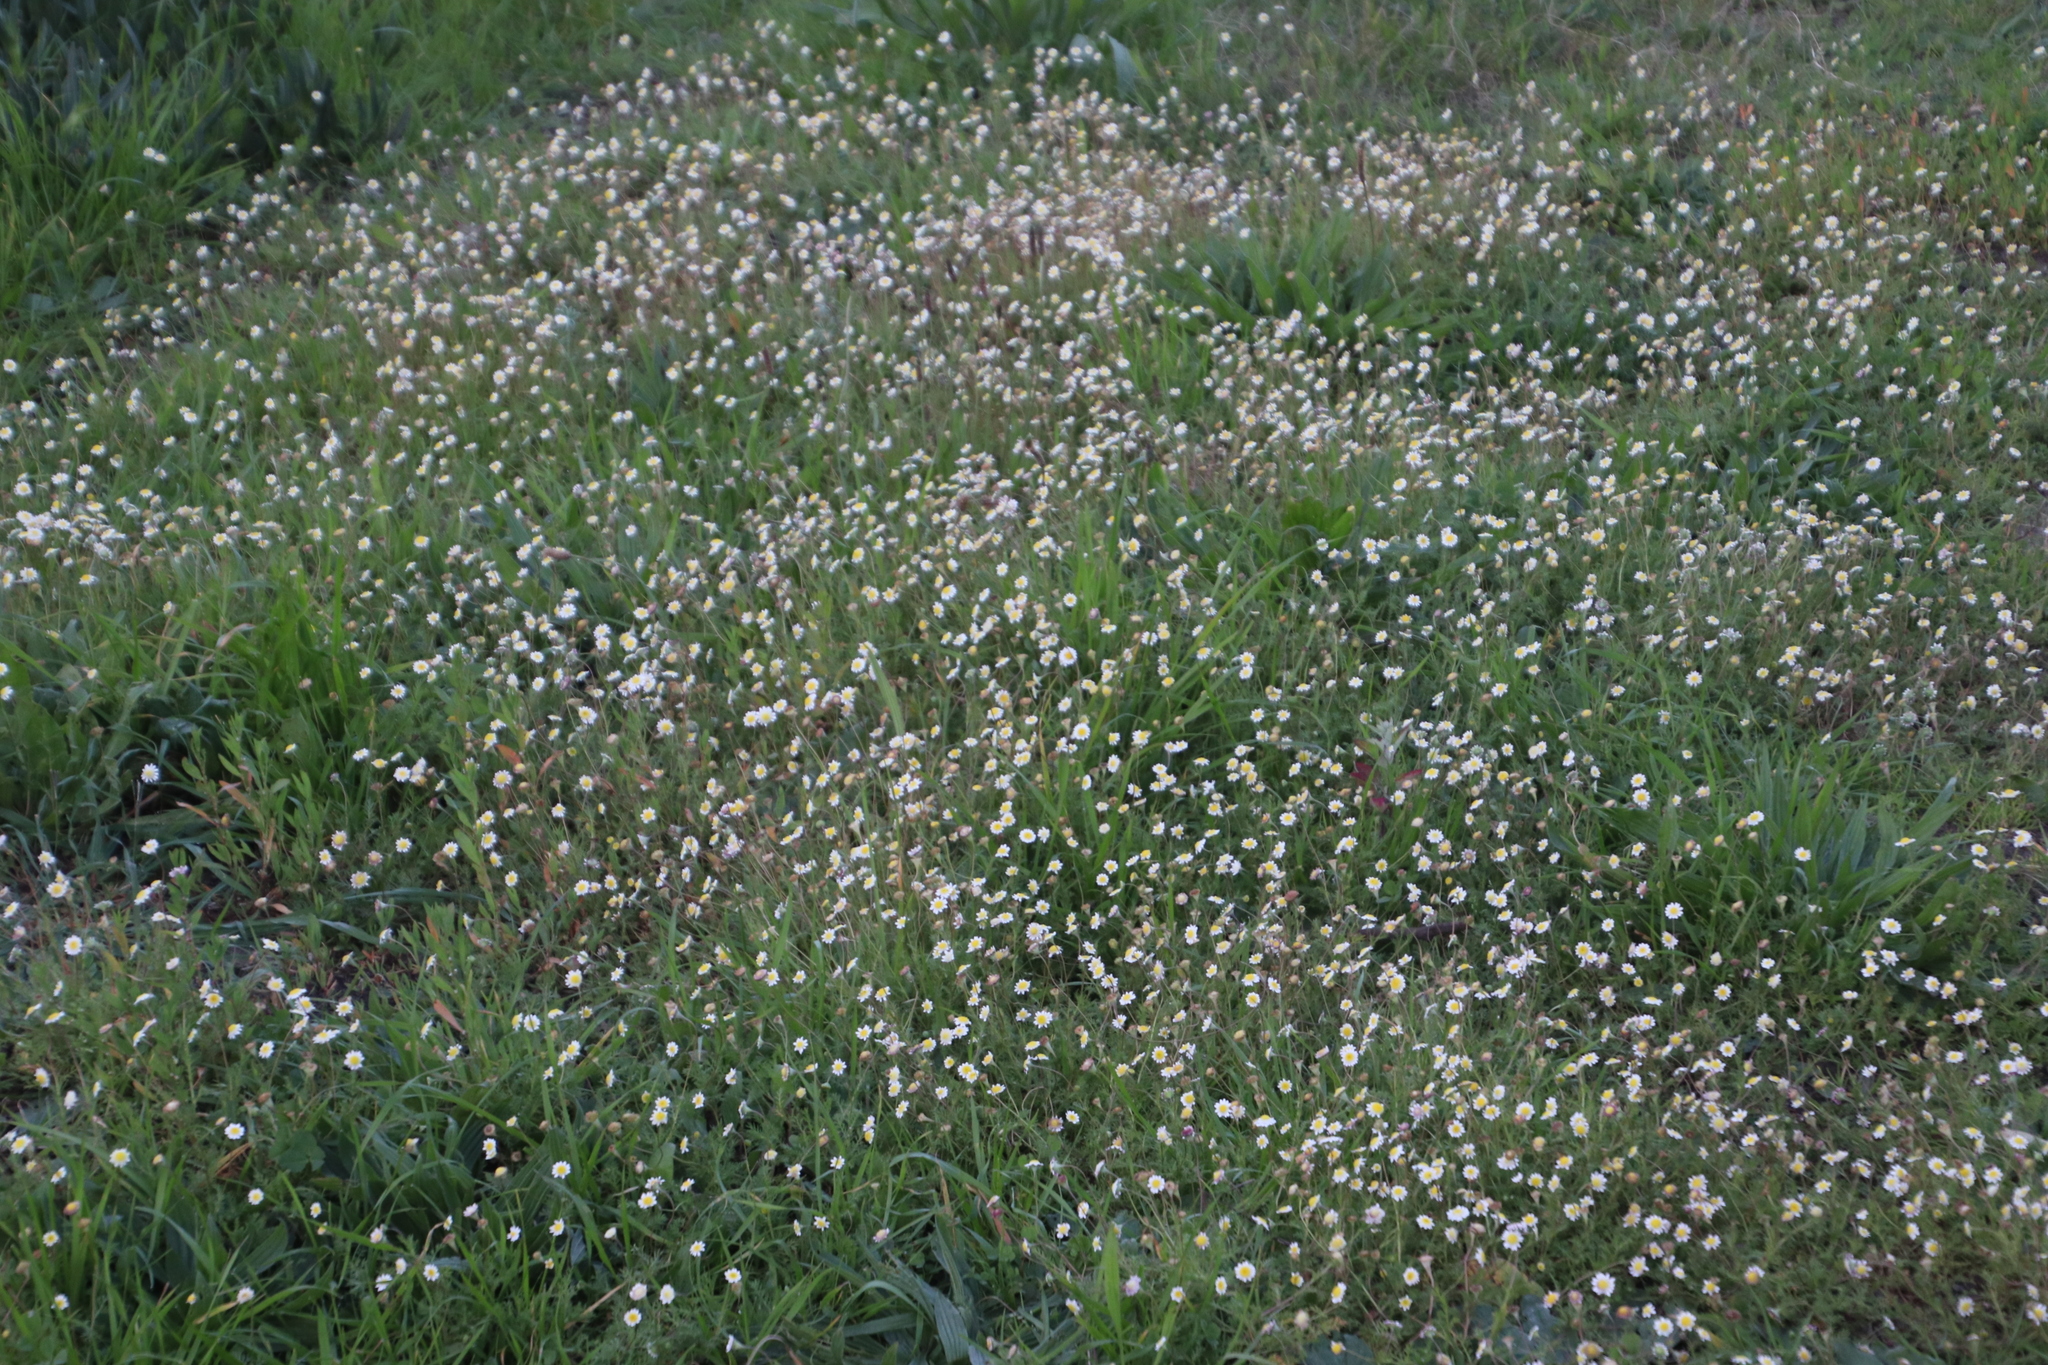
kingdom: Plantae
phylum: Tracheophyta
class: Magnoliopsida
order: Asterales
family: Asteraceae
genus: Cotula
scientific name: Cotula turbinata
